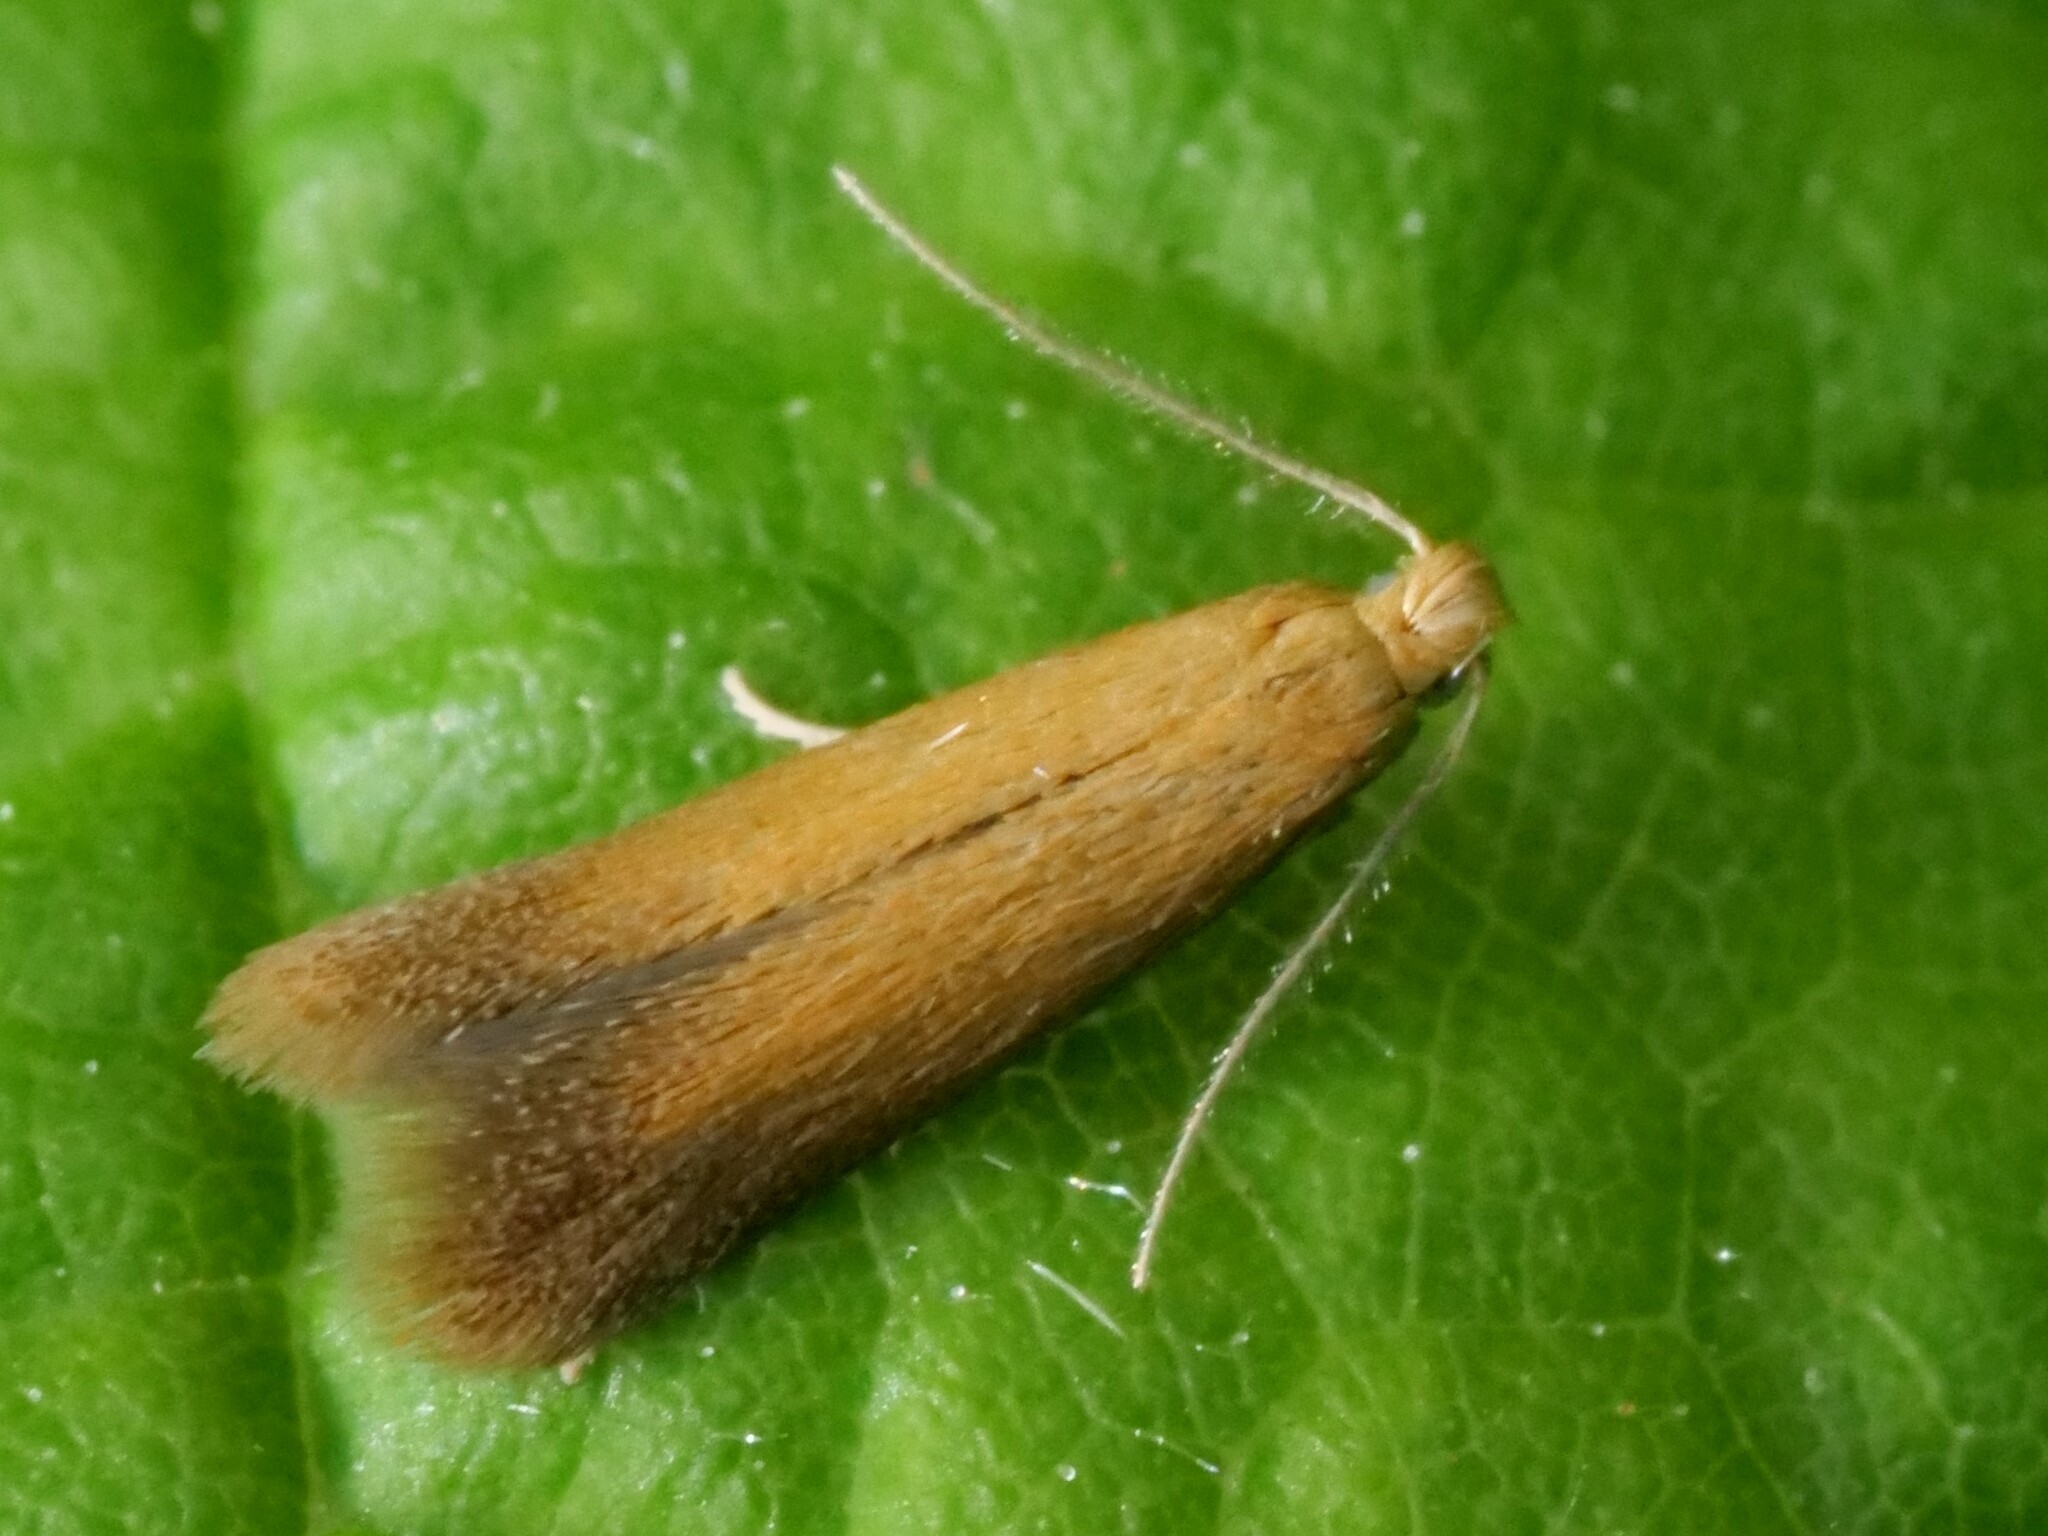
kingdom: Animalia
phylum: Arthropoda
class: Insecta
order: Lepidoptera
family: Tischeriidae
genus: Tischeria
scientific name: Tischeria ekebladella
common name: Oak carl
